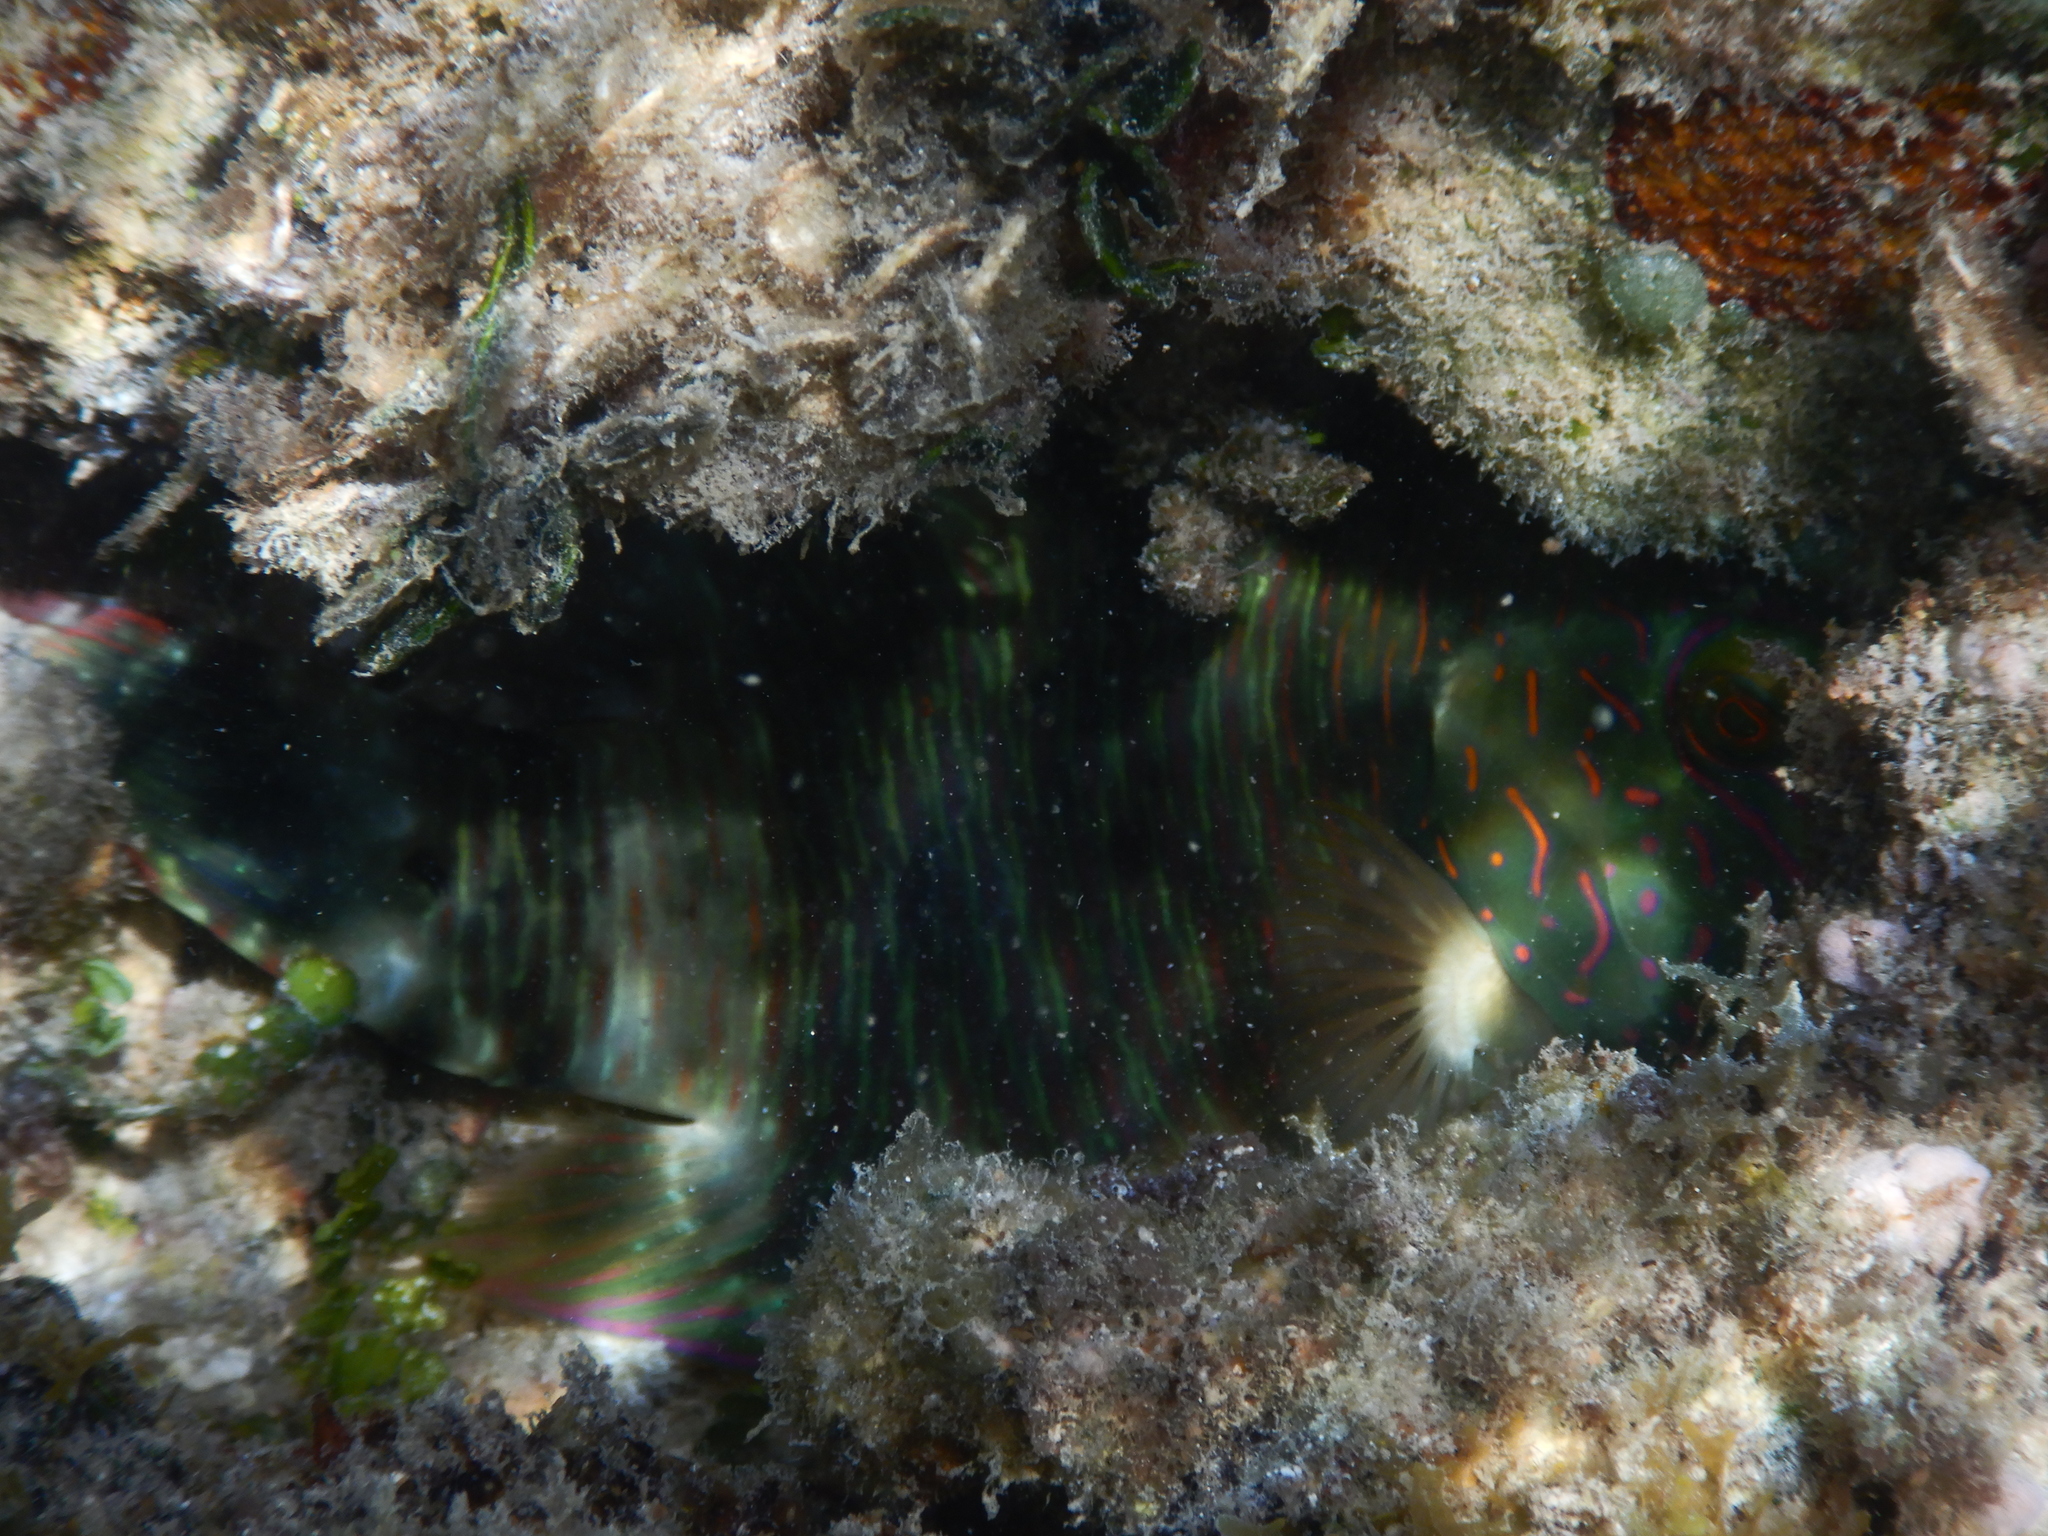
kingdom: Animalia
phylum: Chordata
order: Perciformes
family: Labridae
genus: Cheilinus
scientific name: Cheilinus trilobatus
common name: Tripletail maori wrasse
